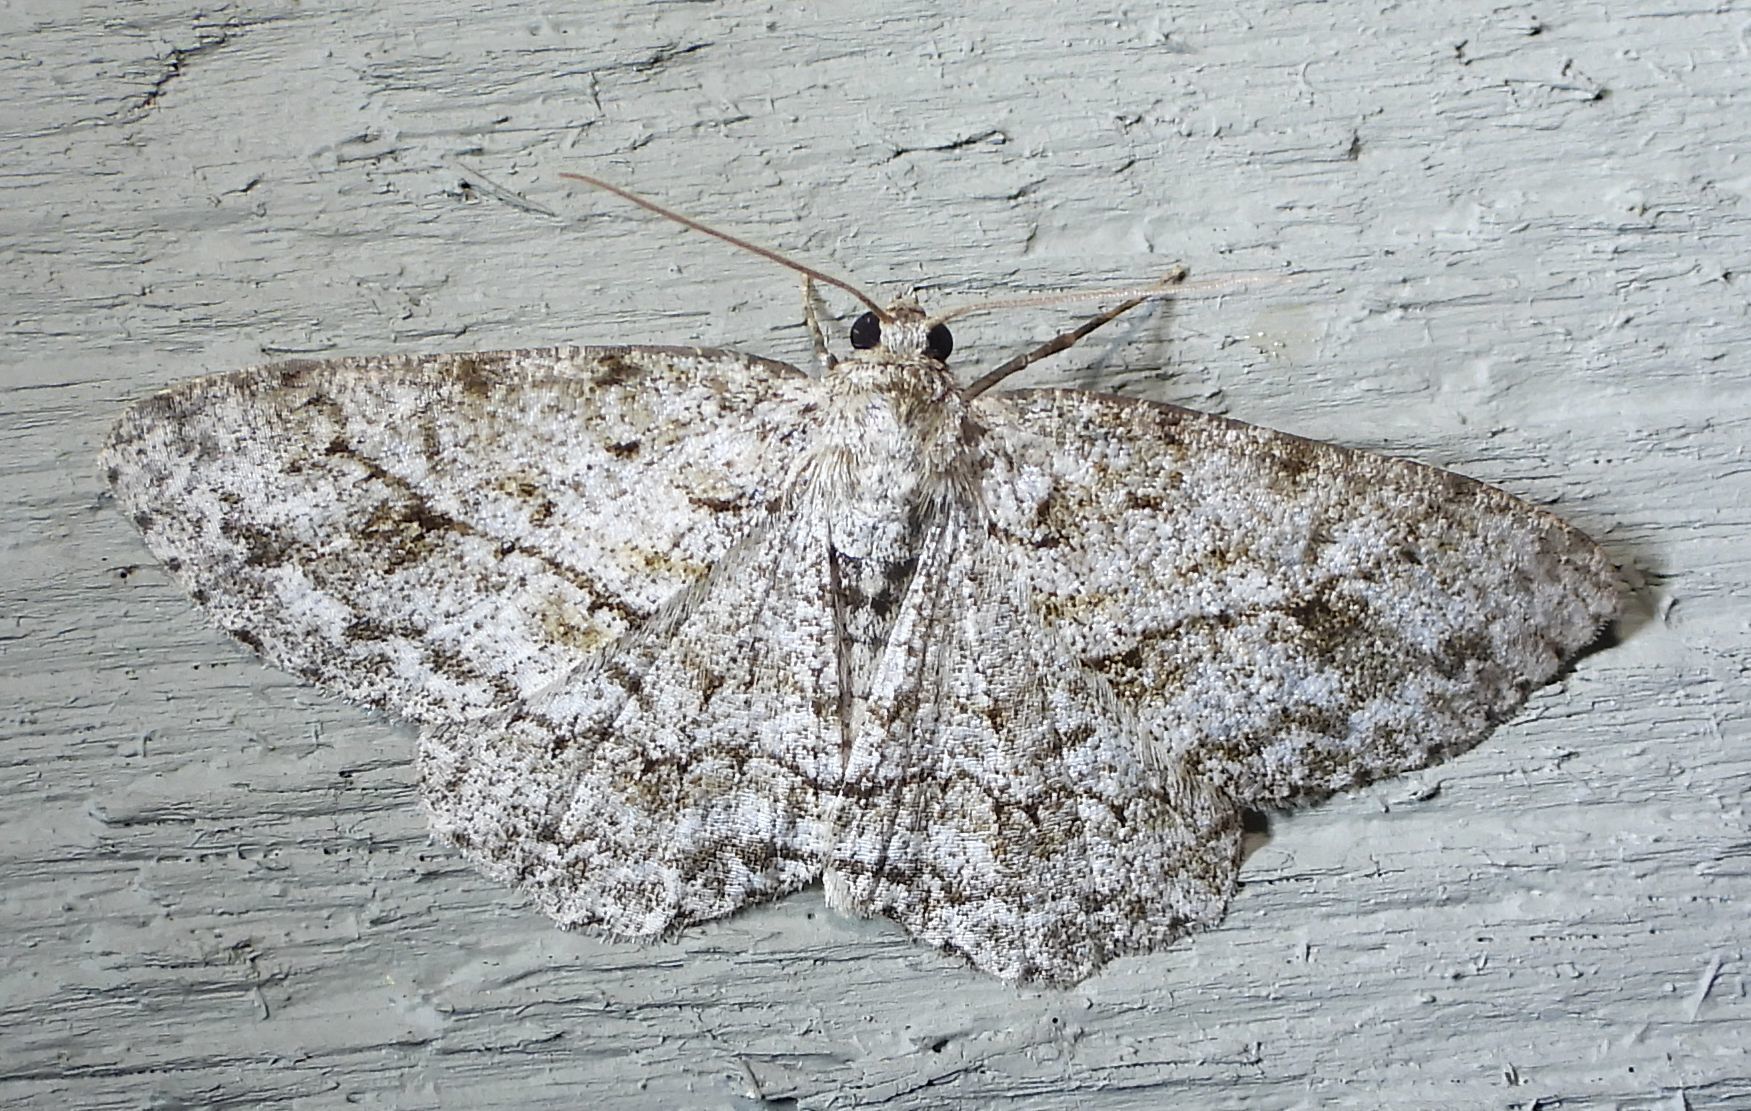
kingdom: Animalia
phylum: Arthropoda
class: Insecta
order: Lepidoptera
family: Geometridae
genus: Ectropis
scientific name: Ectropis crepuscularia
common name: Engrailed
